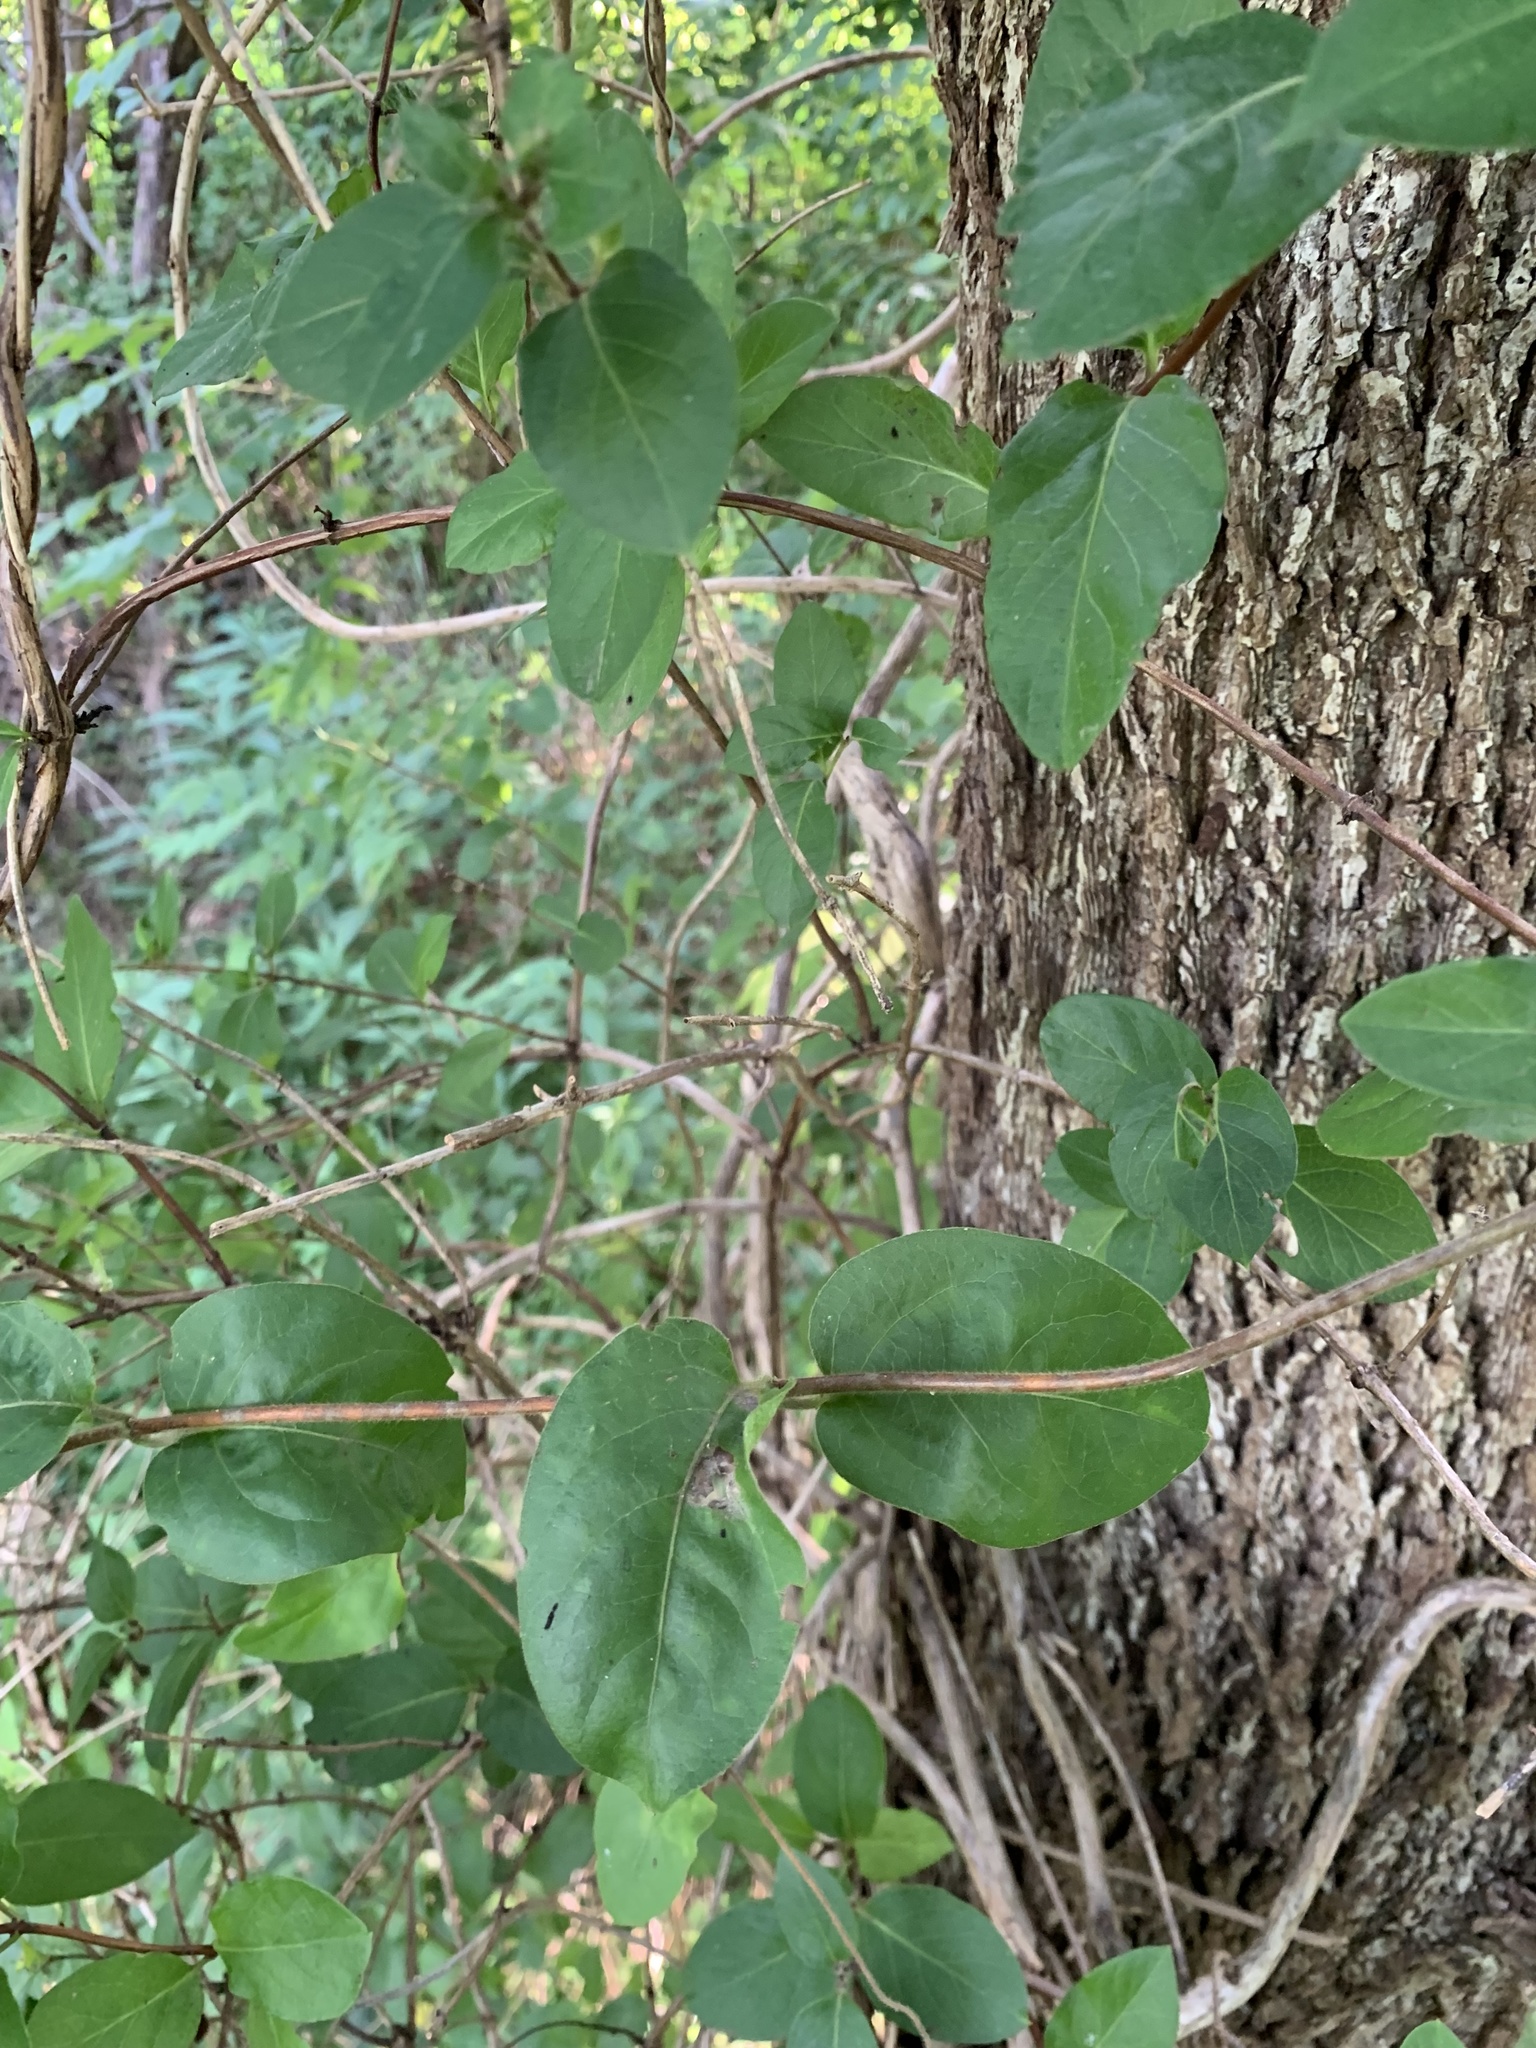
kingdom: Plantae
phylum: Tracheophyta
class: Magnoliopsida
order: Dipsacales
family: Caprifoliaceae
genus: Lonicera
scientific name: Lonicera japonica
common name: Japanese honeysuckle
